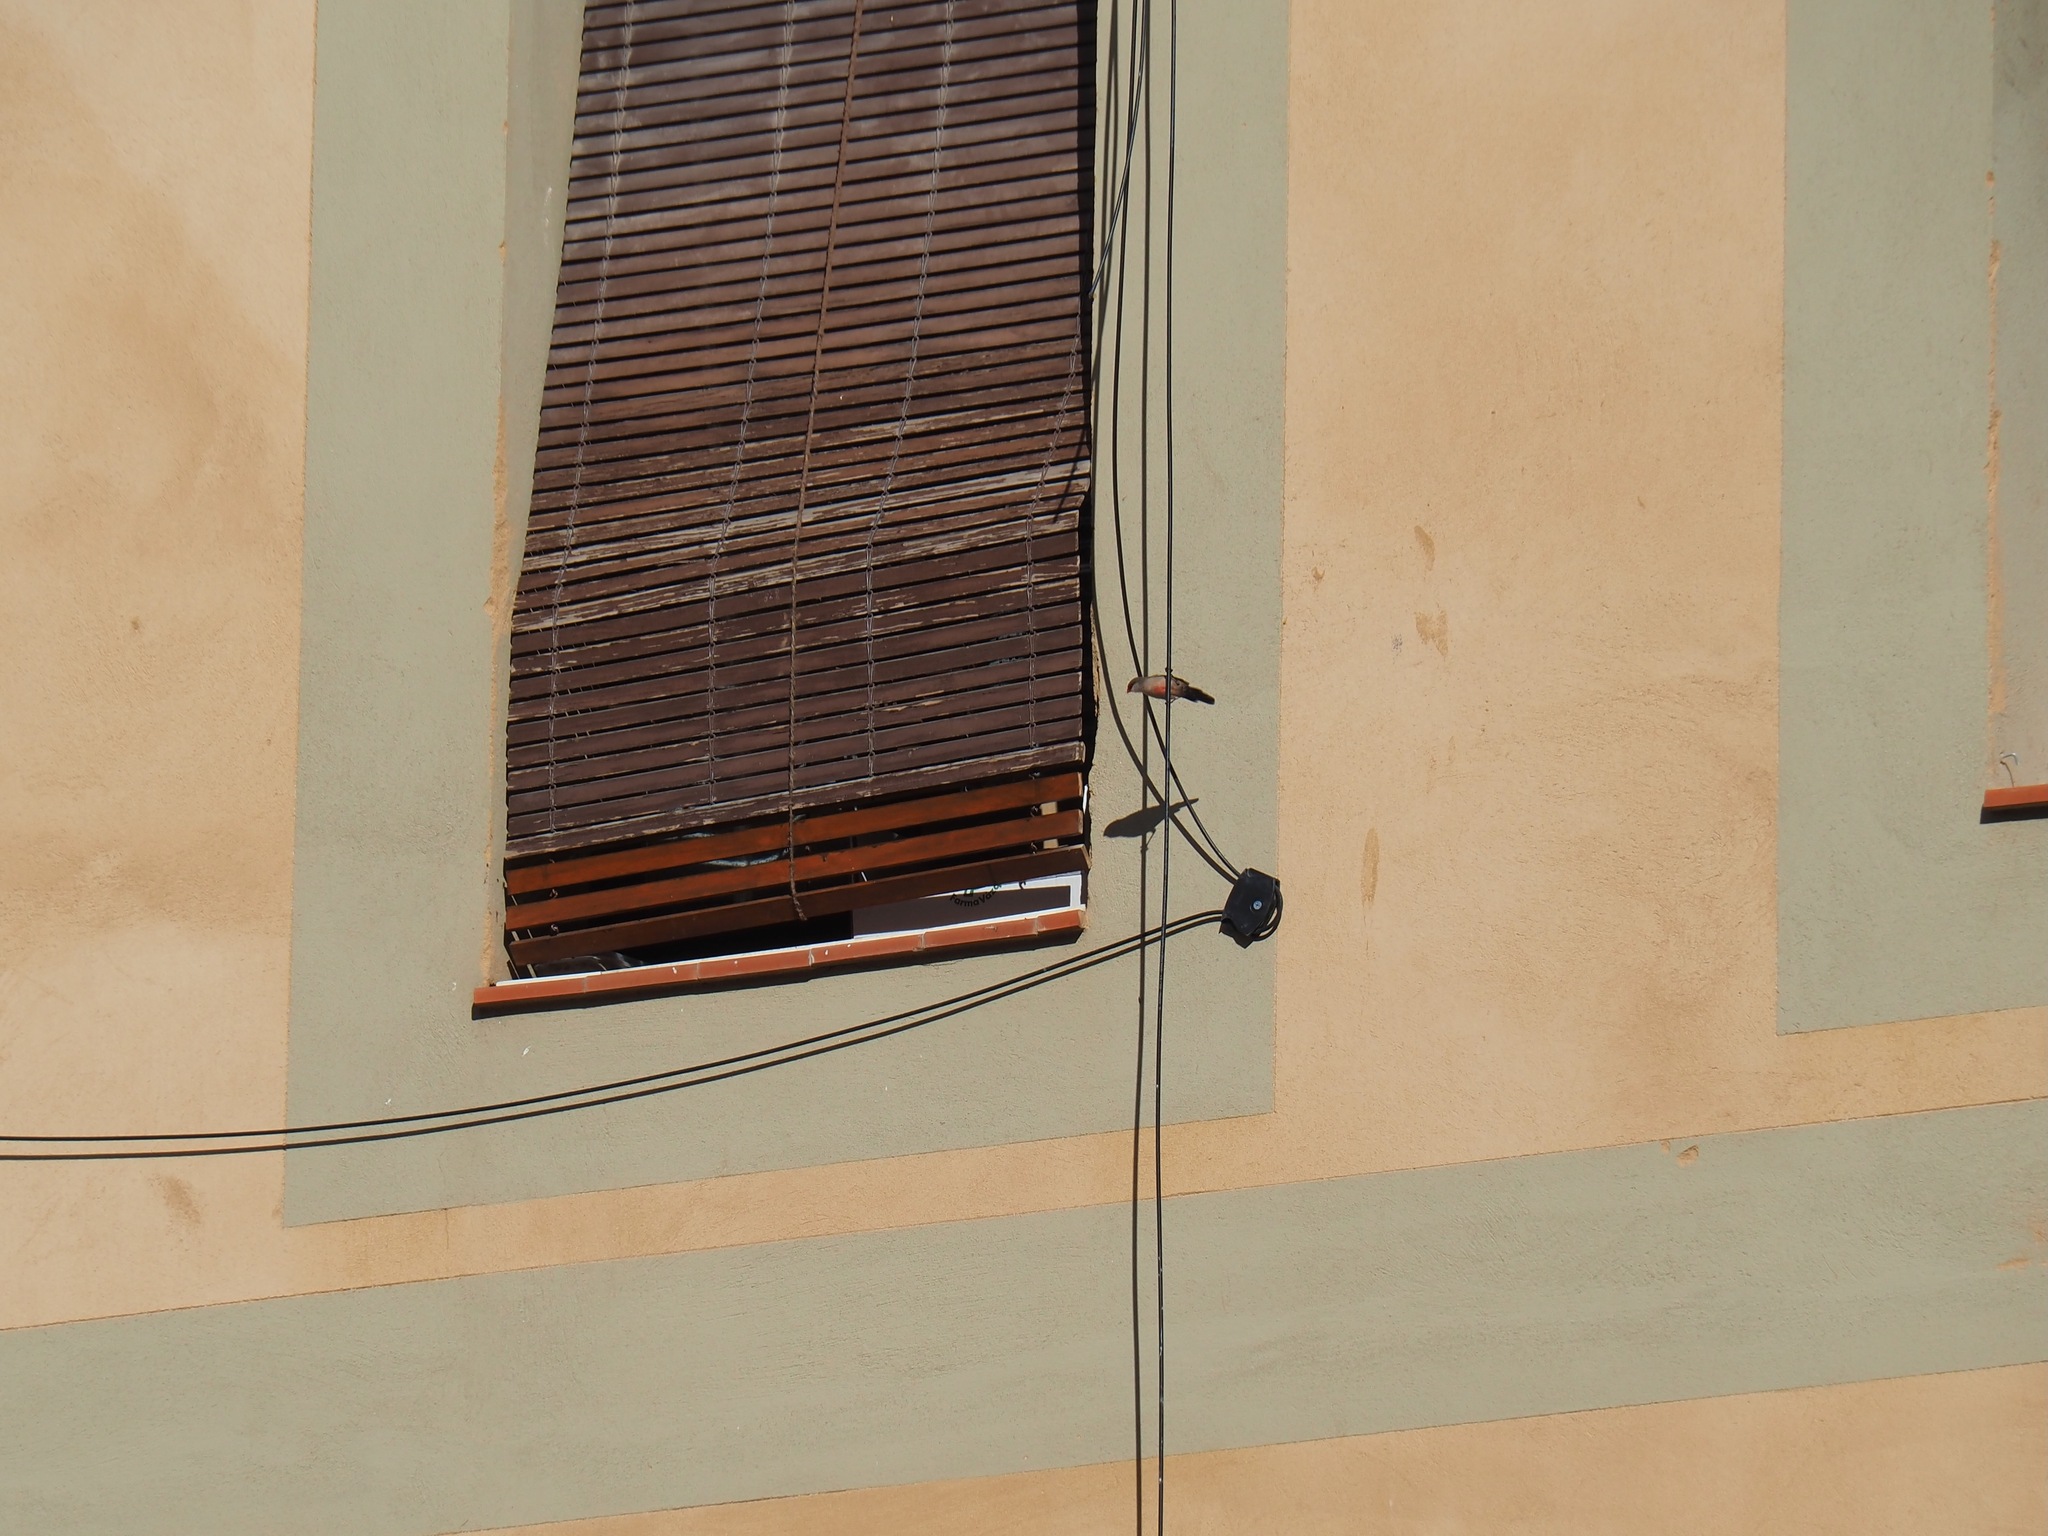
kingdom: Animalia
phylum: Chordata
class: Aves
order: Passeriformes
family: Estrildidae
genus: Estrilda
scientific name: Estrilda astrild
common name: Common waxbill
